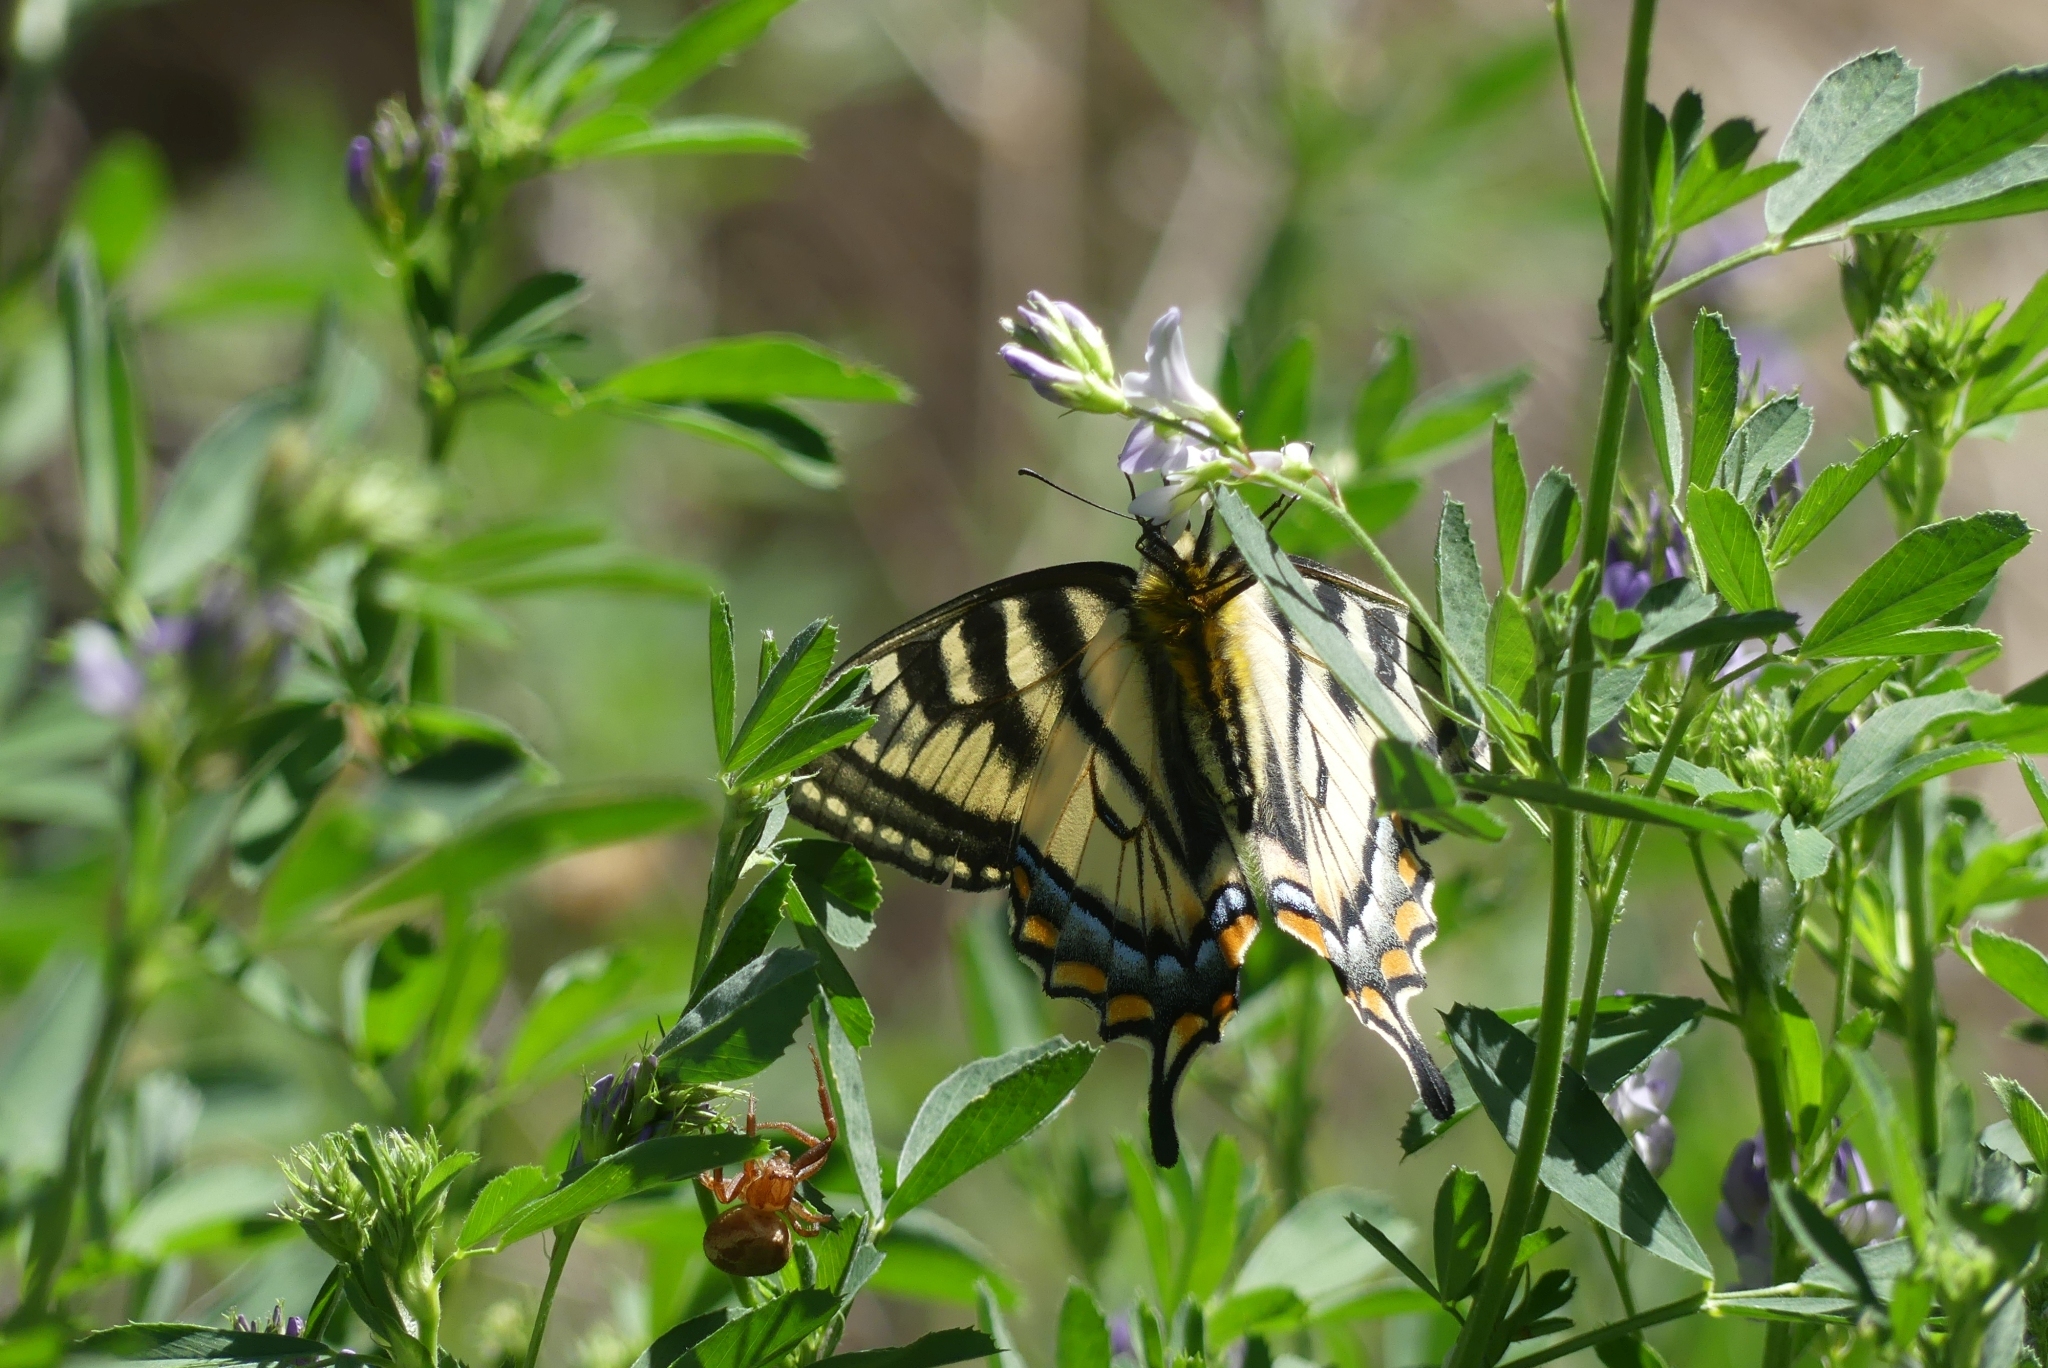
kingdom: Animalia
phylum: Arthropoda
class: Insecta
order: Lepidoptera
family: Papilionidae
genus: Papilio
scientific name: Papilio canadensis
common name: Canadian tiger swallowtail
